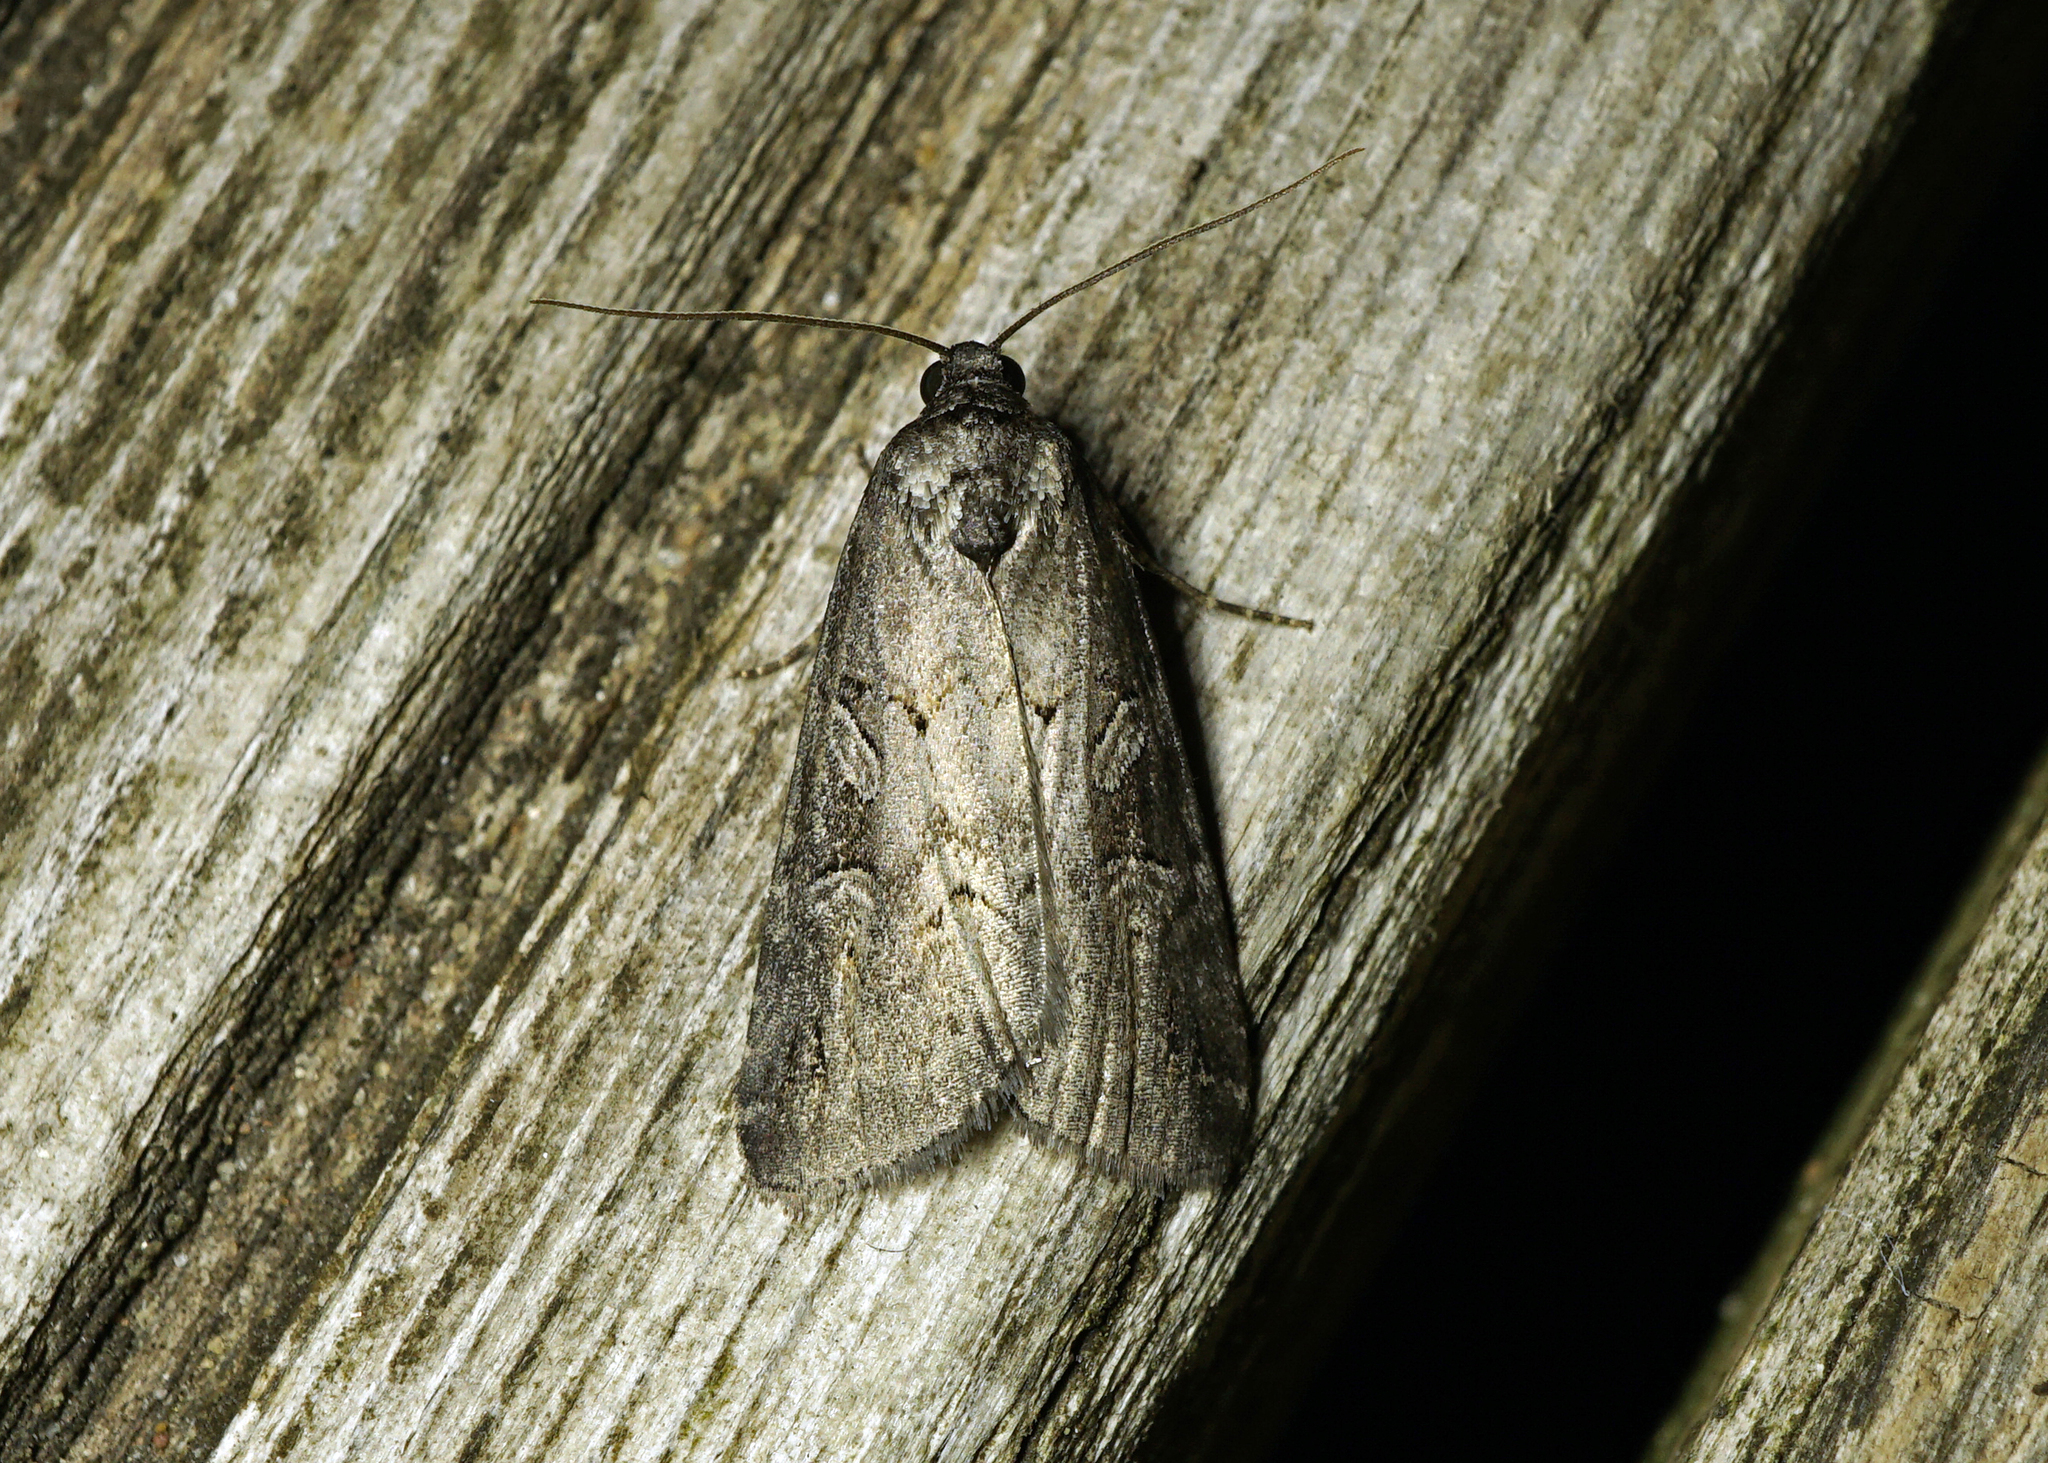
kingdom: Animalia
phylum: Arthropoda
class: Insecta
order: Lepidoptera
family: Noctuidae
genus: Stilbia
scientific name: Stilbia anomala
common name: Anomalous
